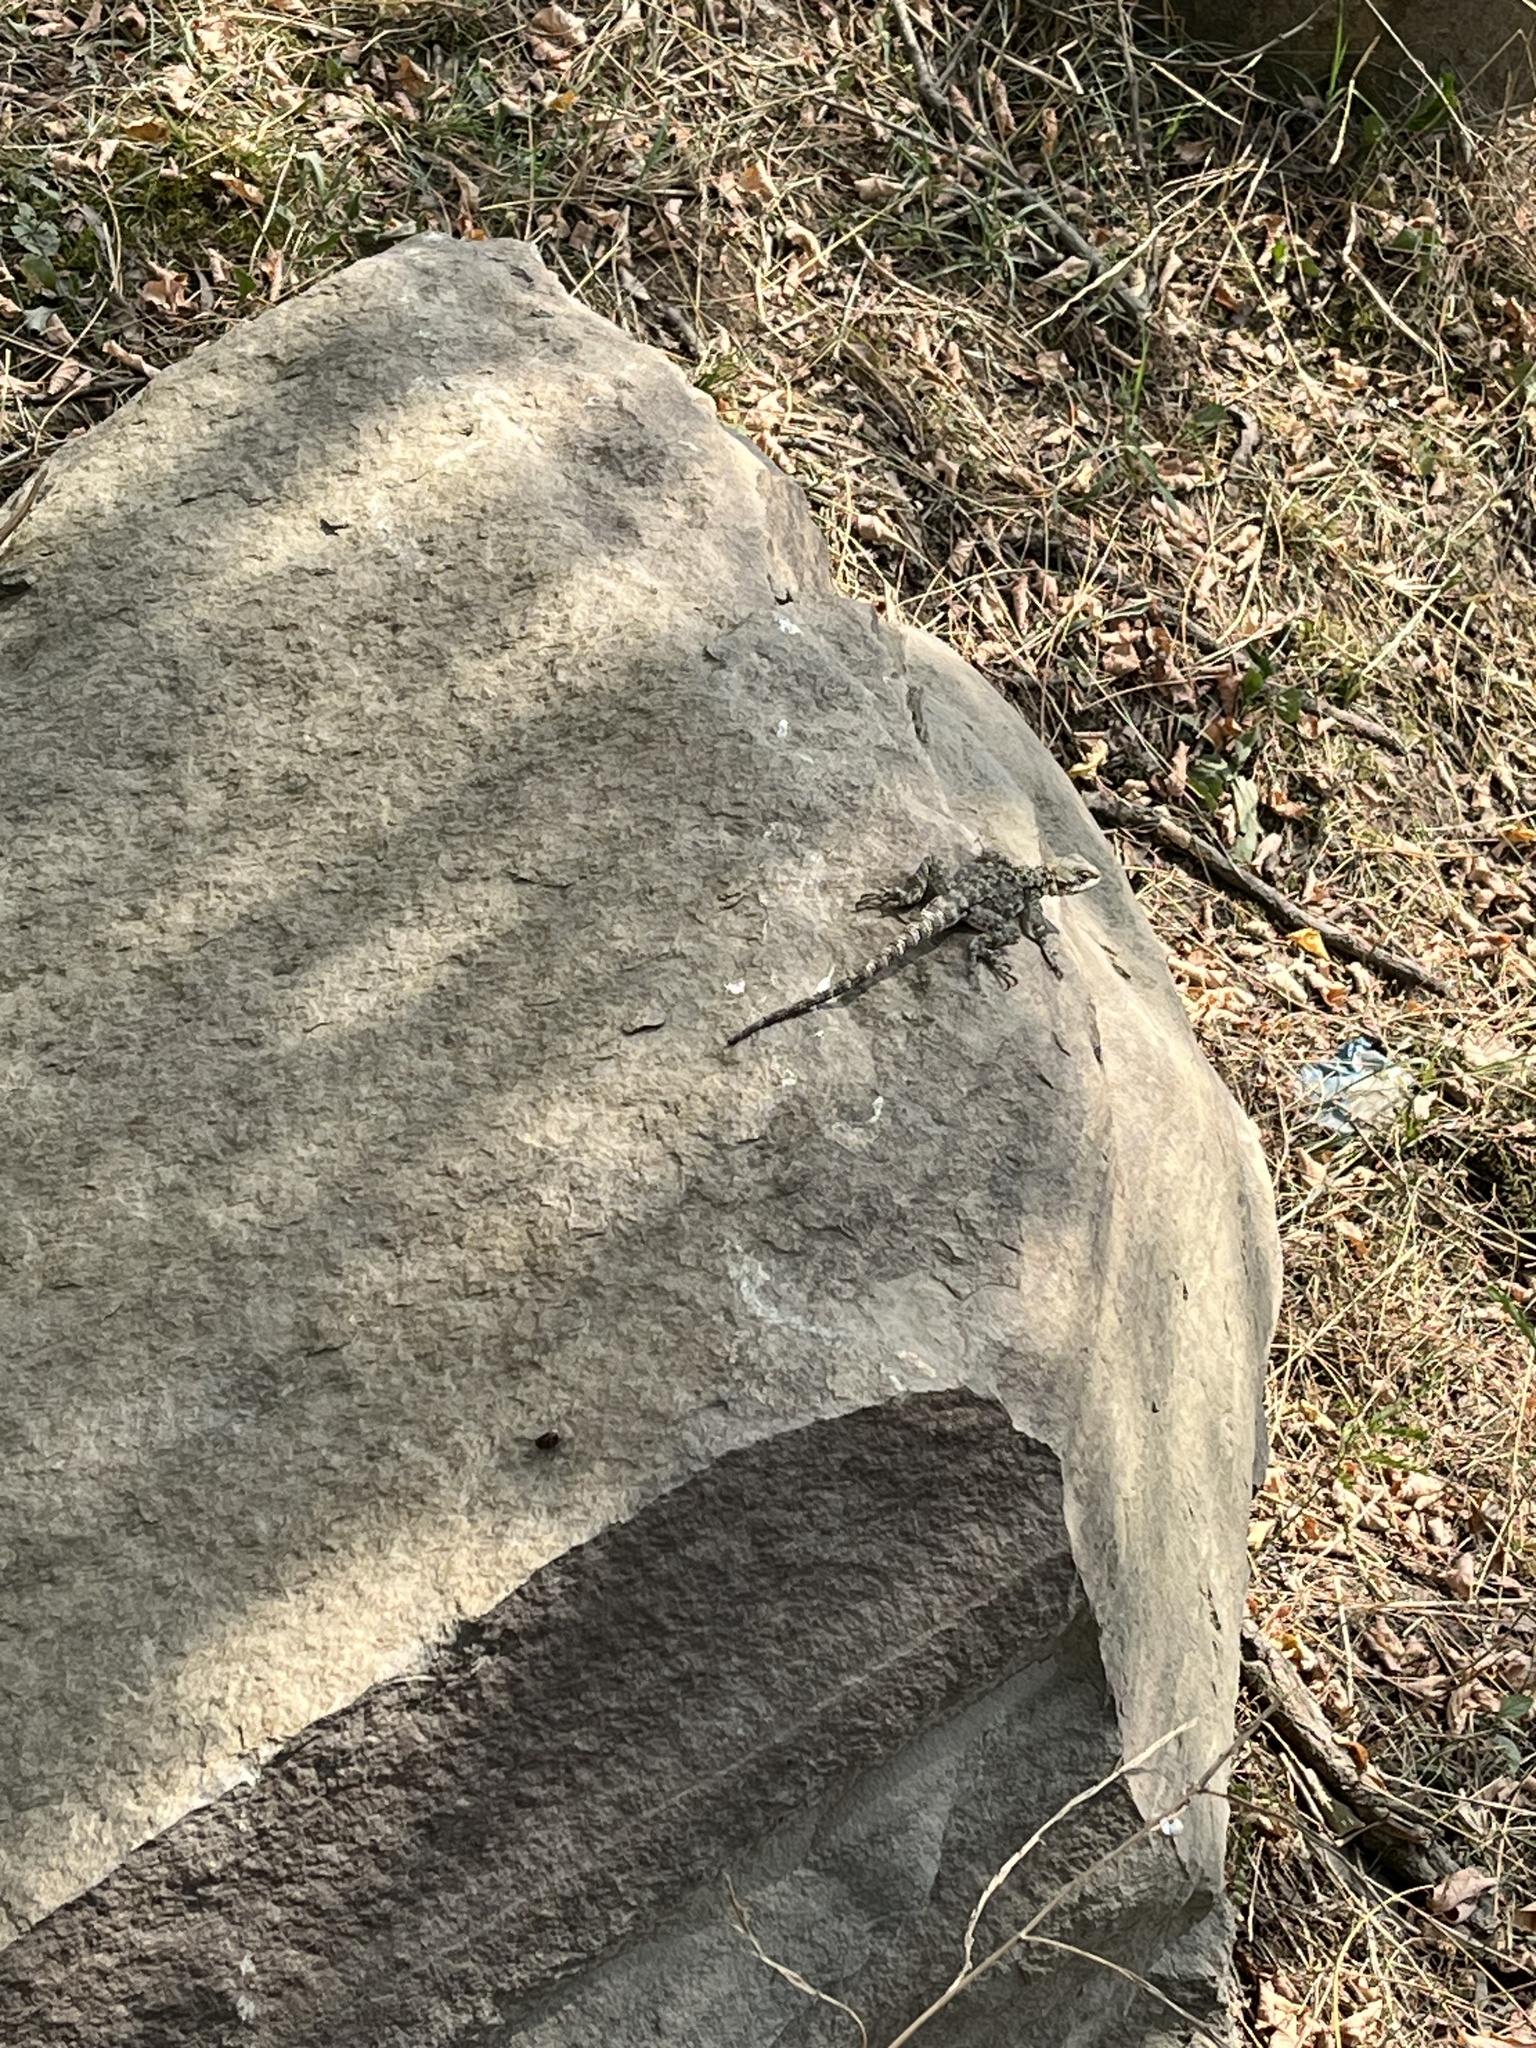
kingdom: Animalia
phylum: Chordata
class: Squamata
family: Agamidae
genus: Paralaudakia
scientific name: Paralaudakia caucasia
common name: Caucasian agama
